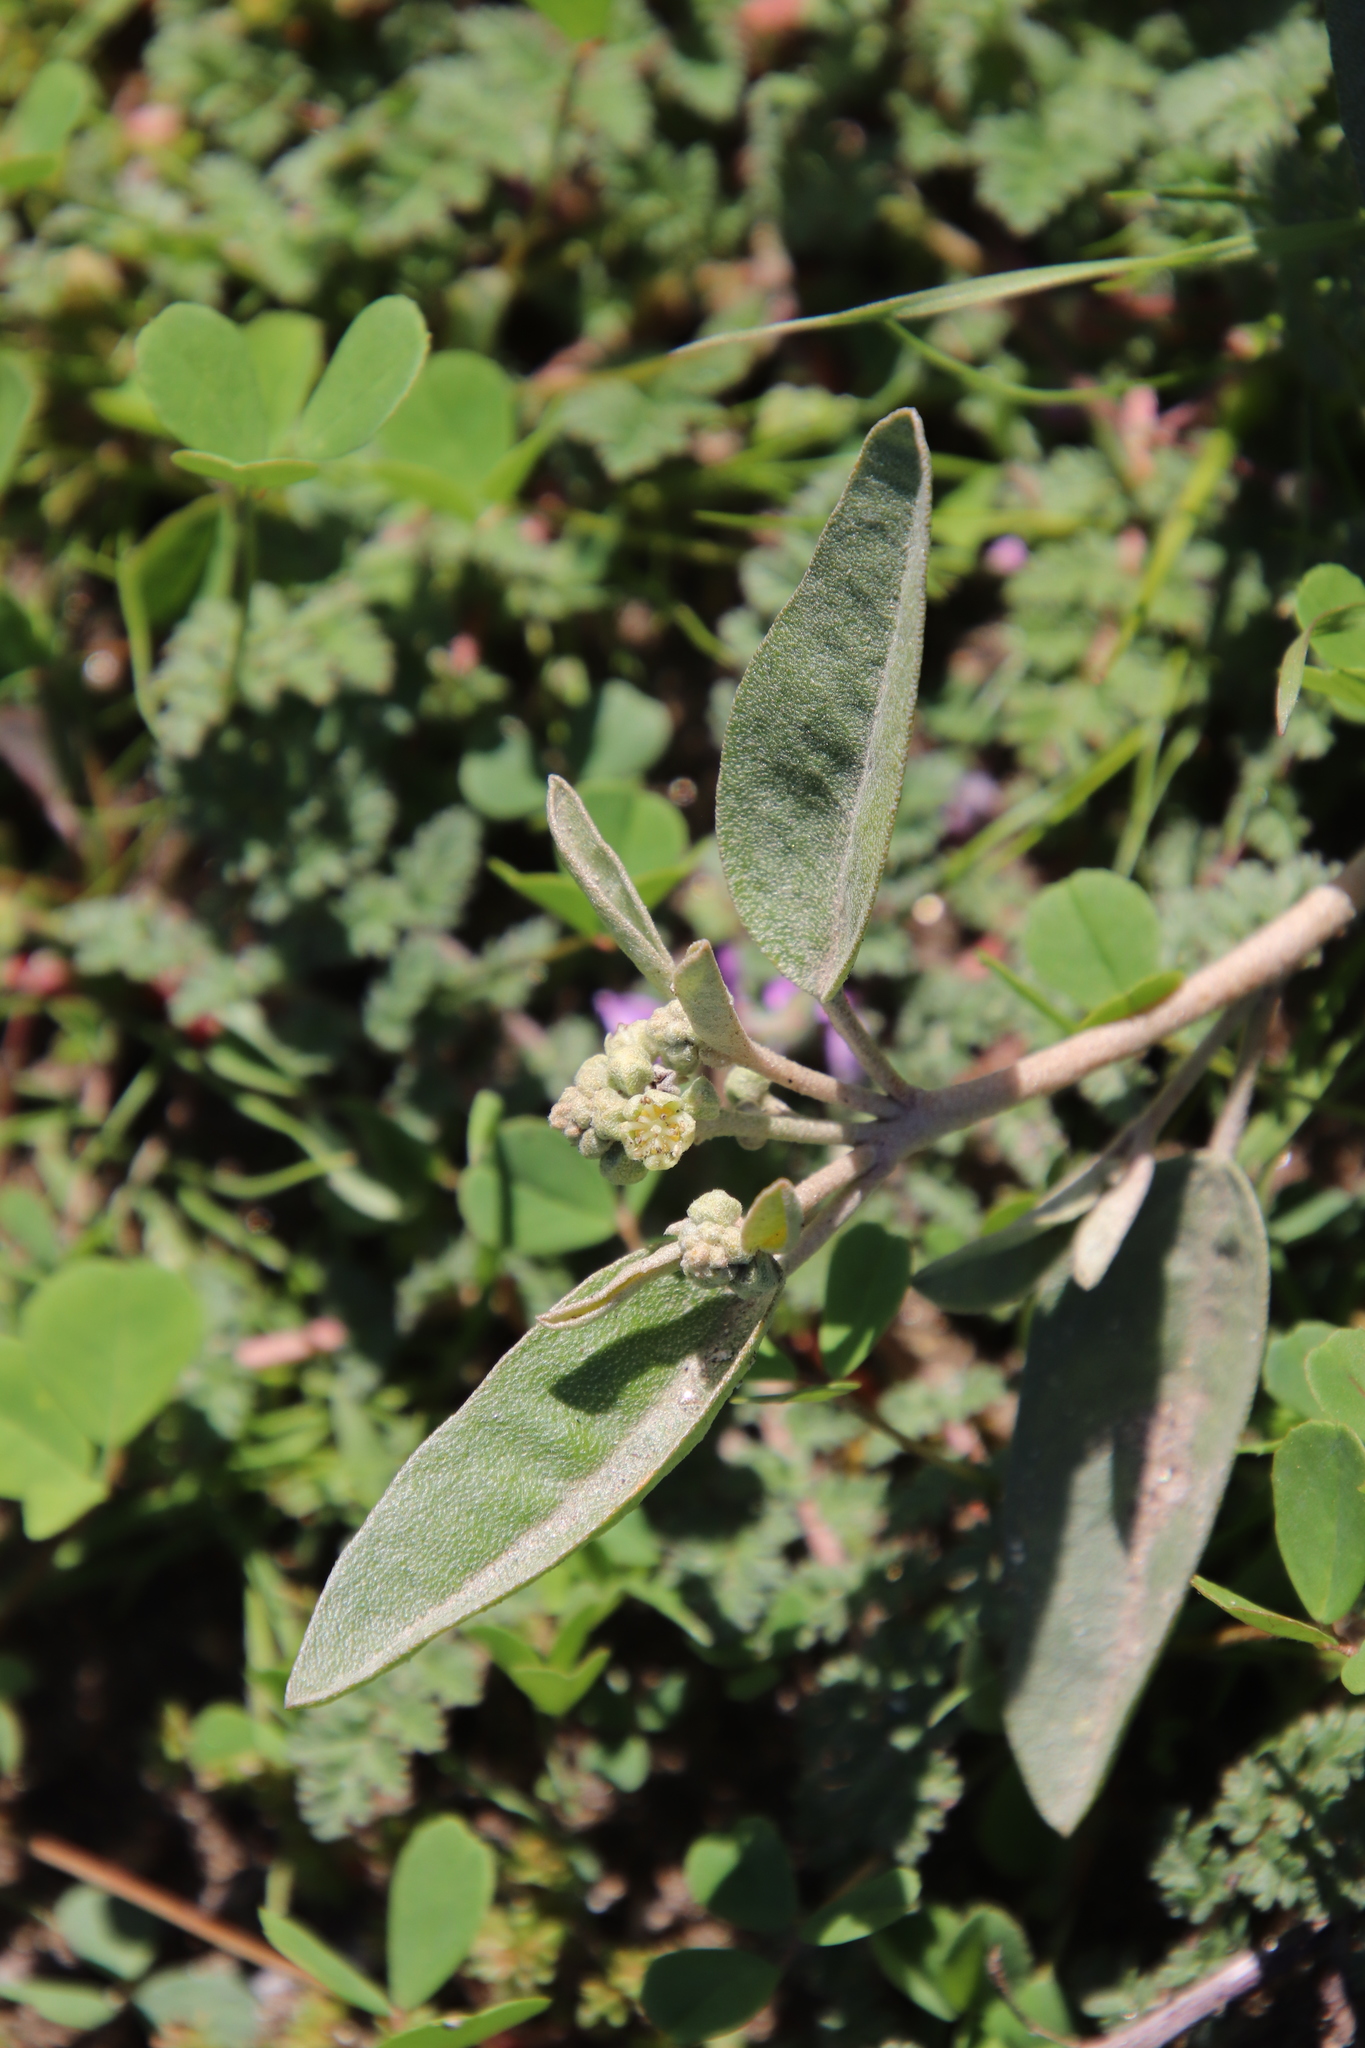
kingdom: Plantae
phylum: Tracheophyta
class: Magnoliopsida
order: Malpighiales
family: Euphorbiaceae
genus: Croton
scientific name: Croton californicus
